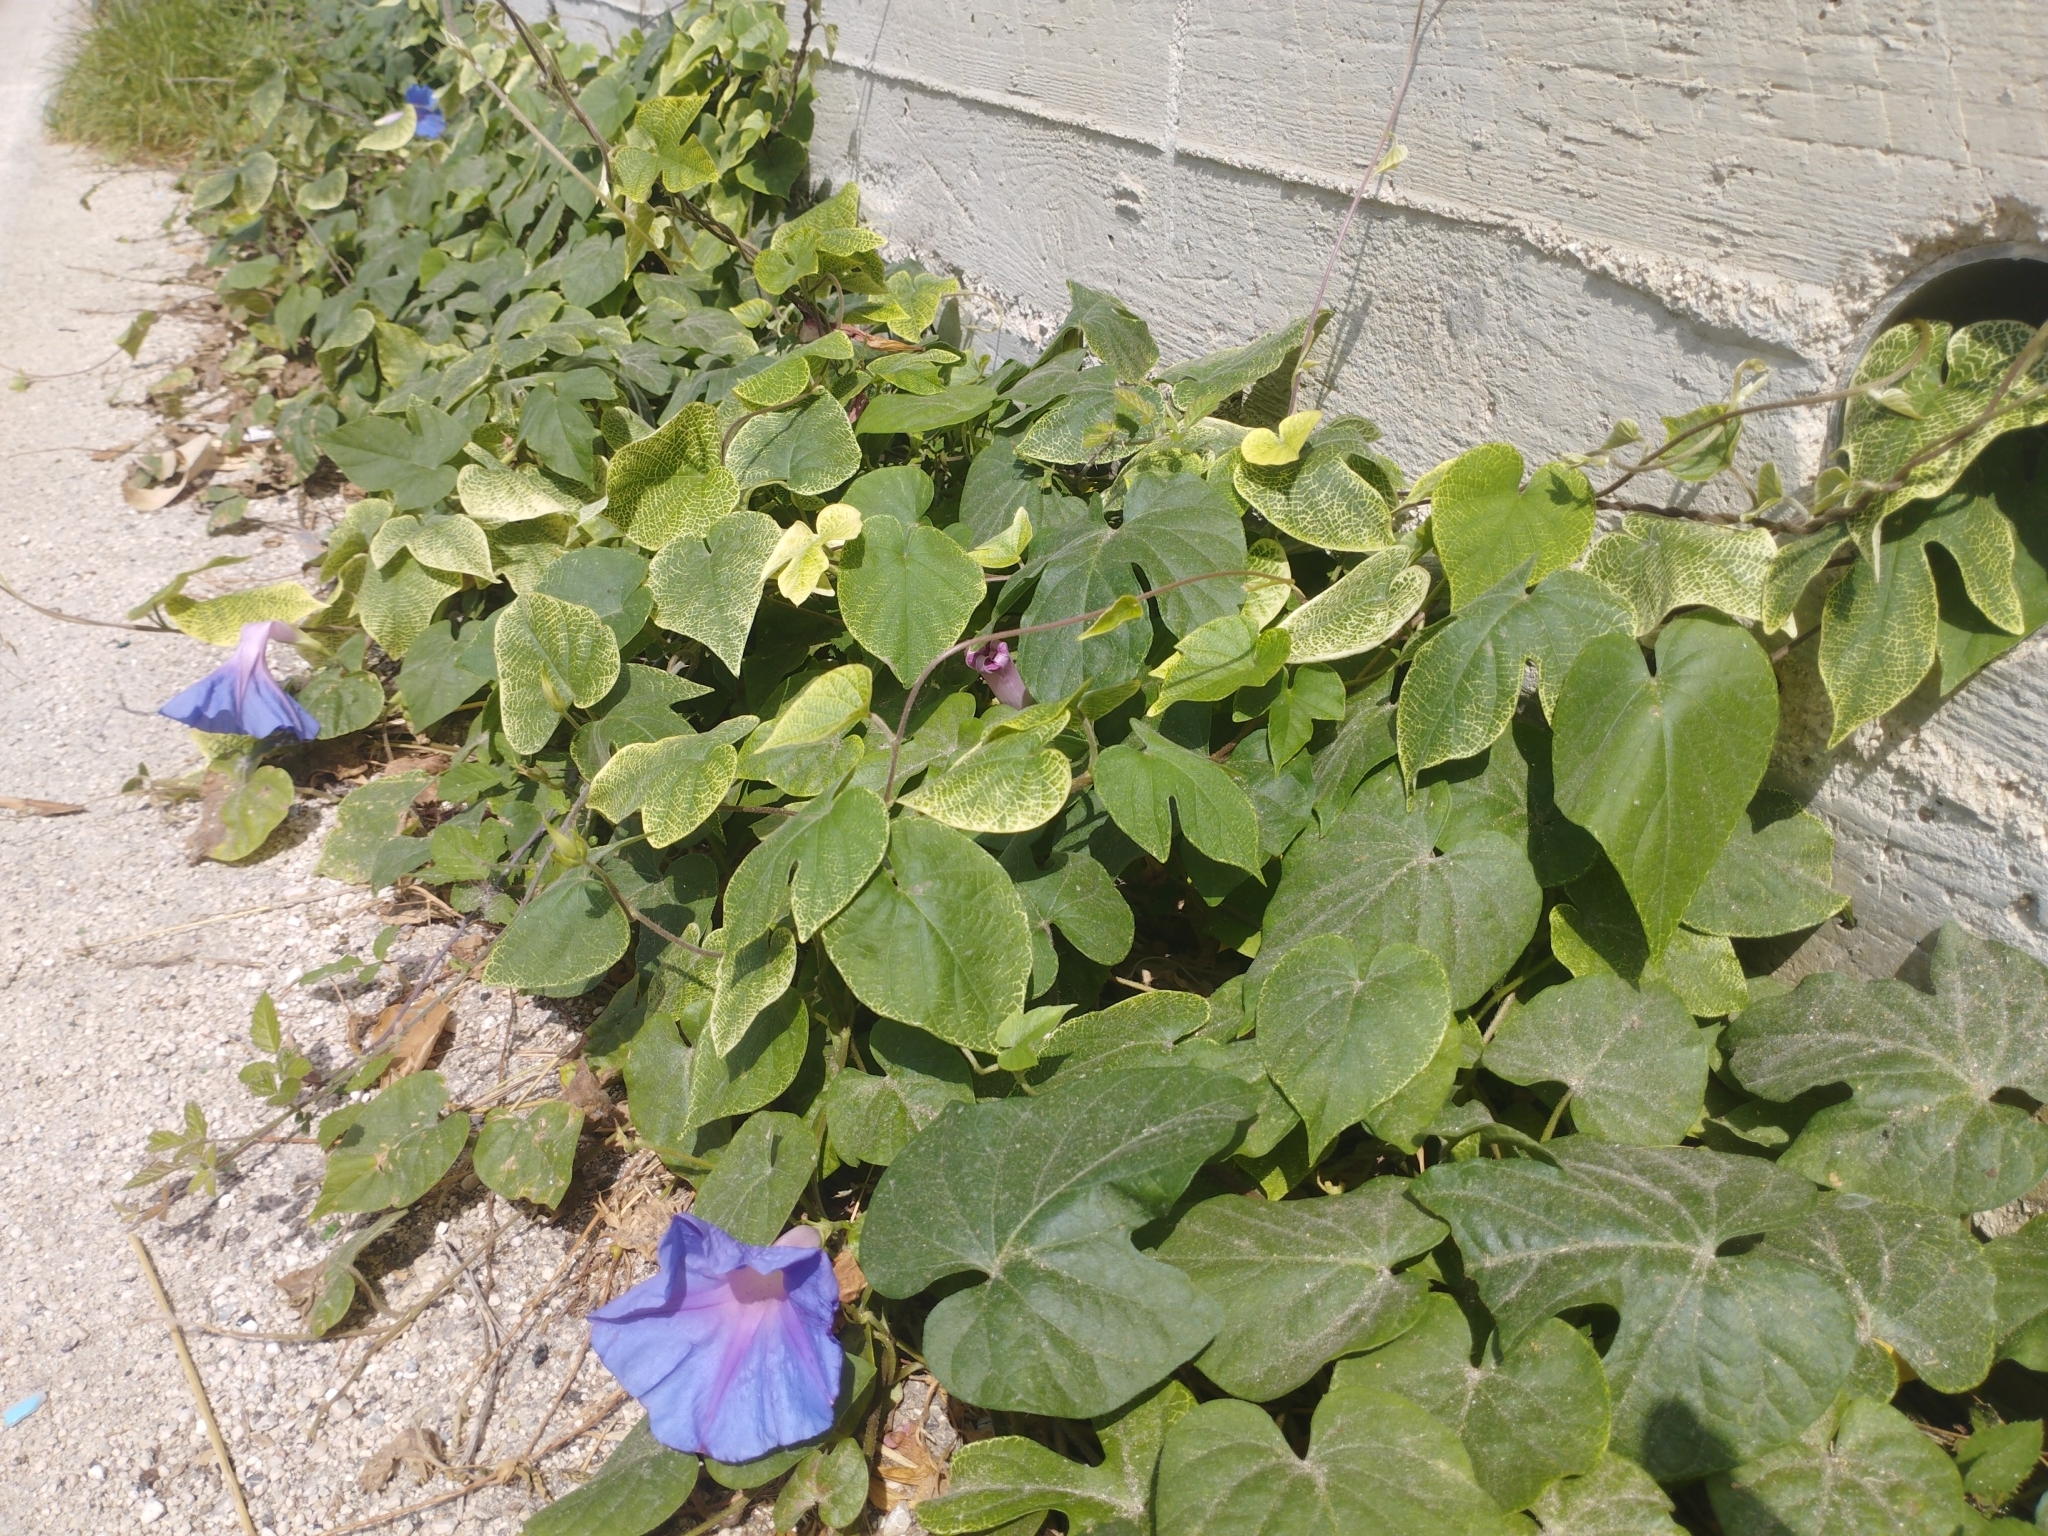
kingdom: Plantae
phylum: Tracheophyta
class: Magnoliopsida
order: Solanales
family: Convolvulaceae
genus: Ipomoea
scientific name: Ipomoea indica
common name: Blue dawnflower
